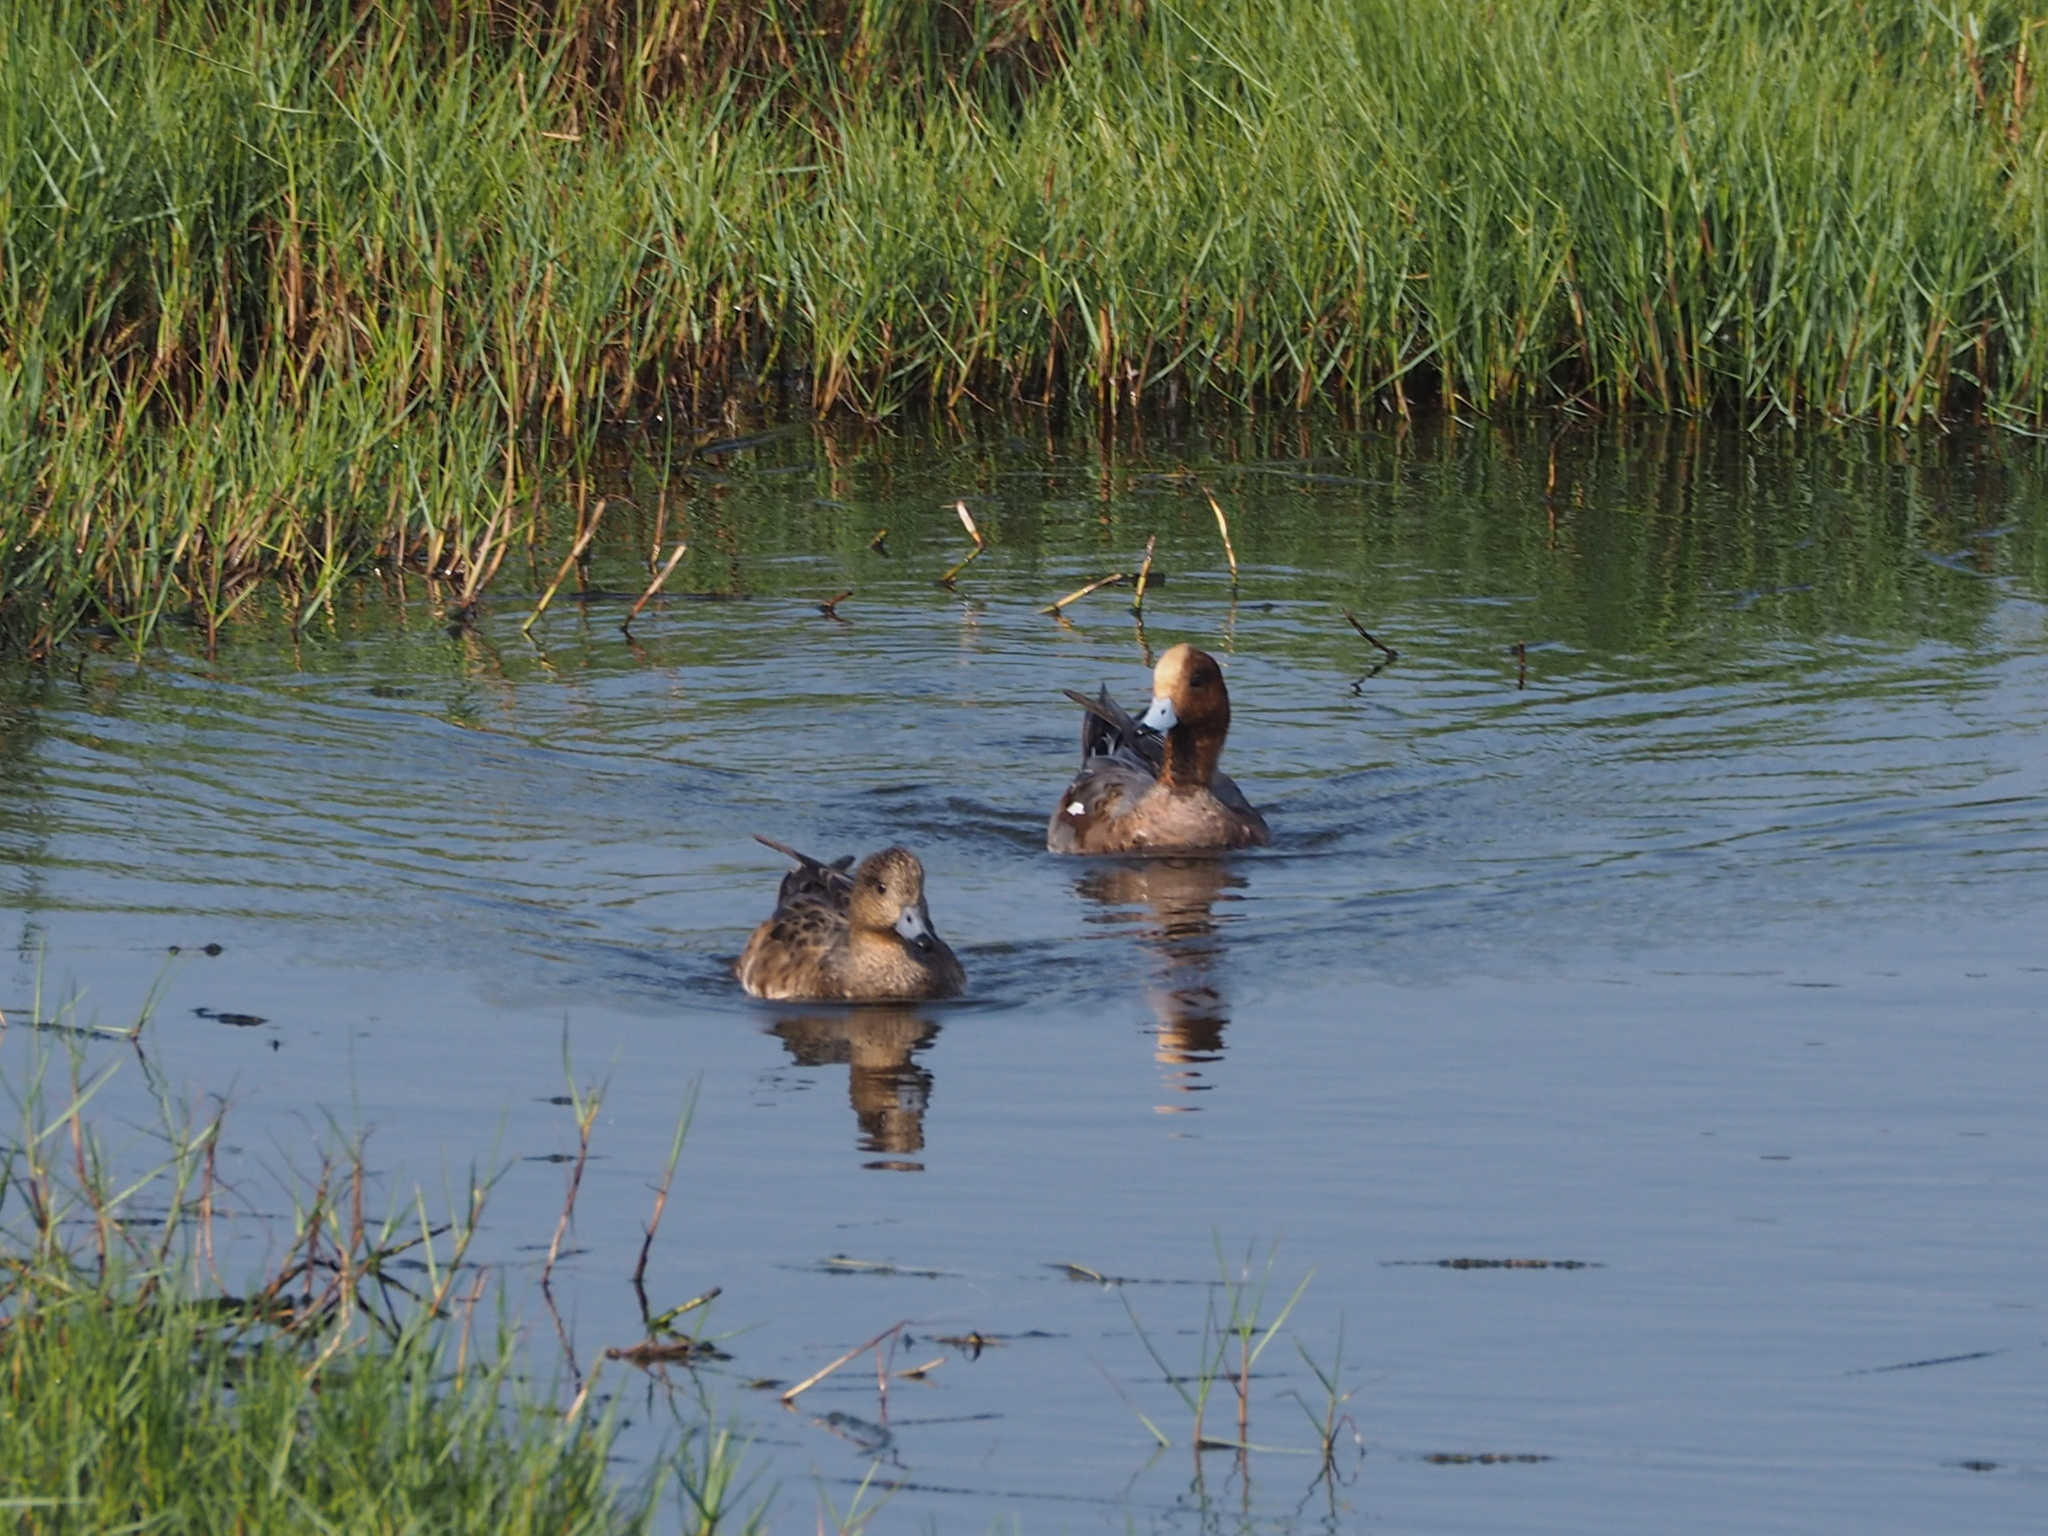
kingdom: Animalia
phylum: Chordata
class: Aves
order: Anseriformes
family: Anatidae
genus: Mareca
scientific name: Mareca penelope
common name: Eurasian wigeon
